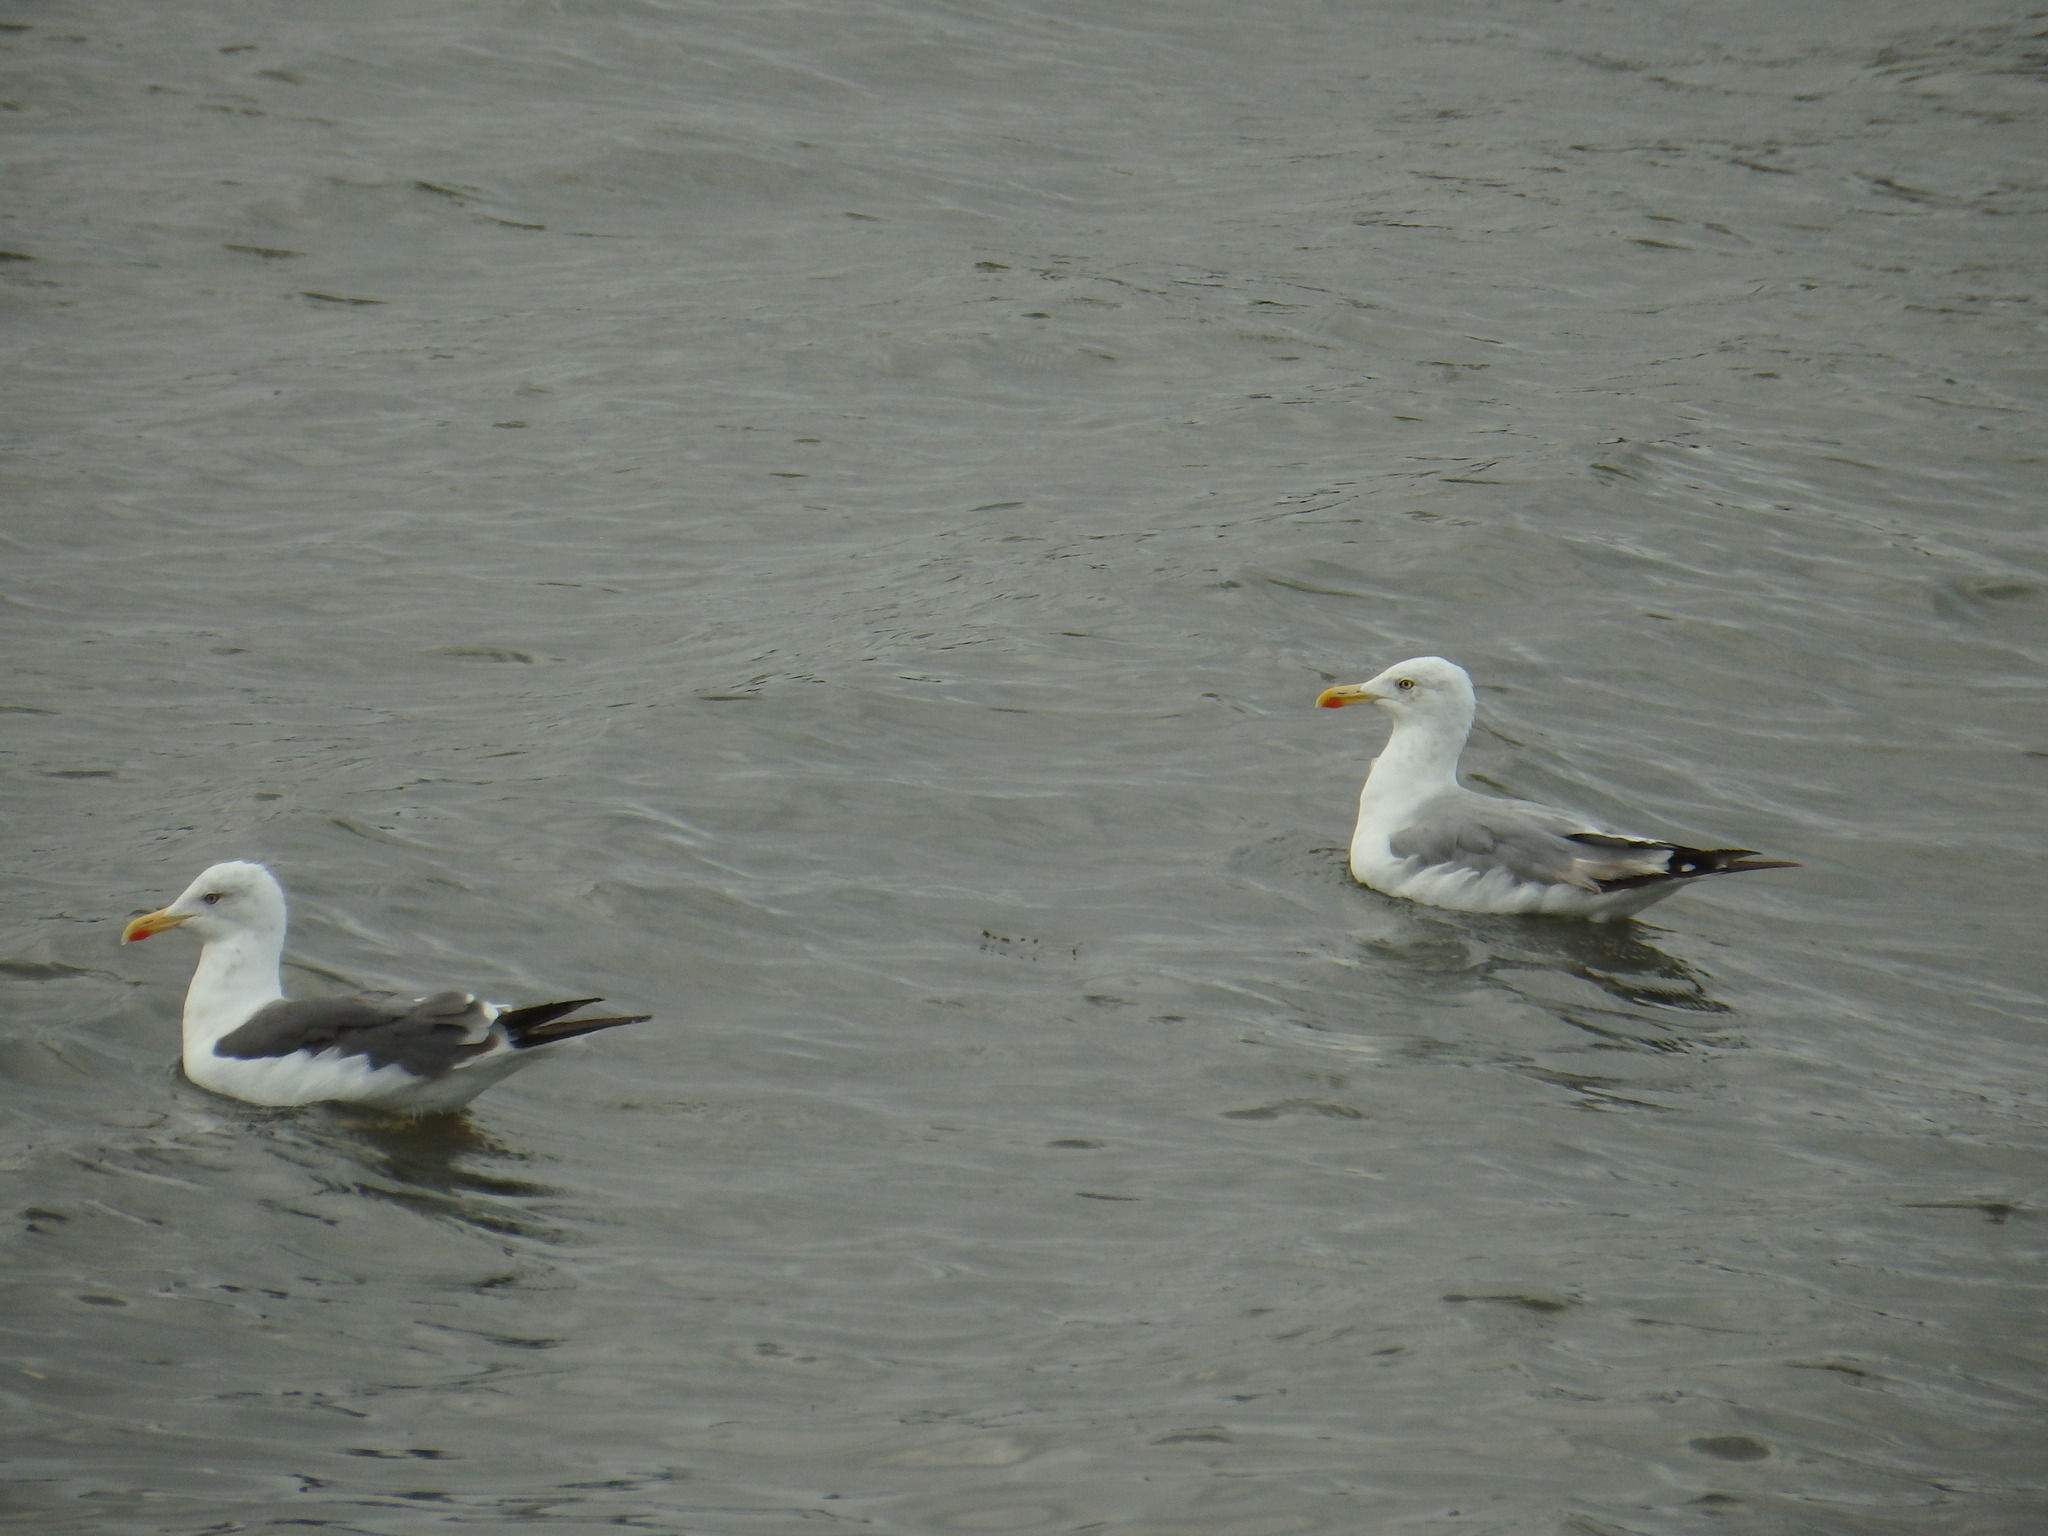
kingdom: Animalia
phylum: Chordata
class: Aves
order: Charadriiformes
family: Laridae
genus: Larus
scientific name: Larus fuscus
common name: Lesser black-backed gull
